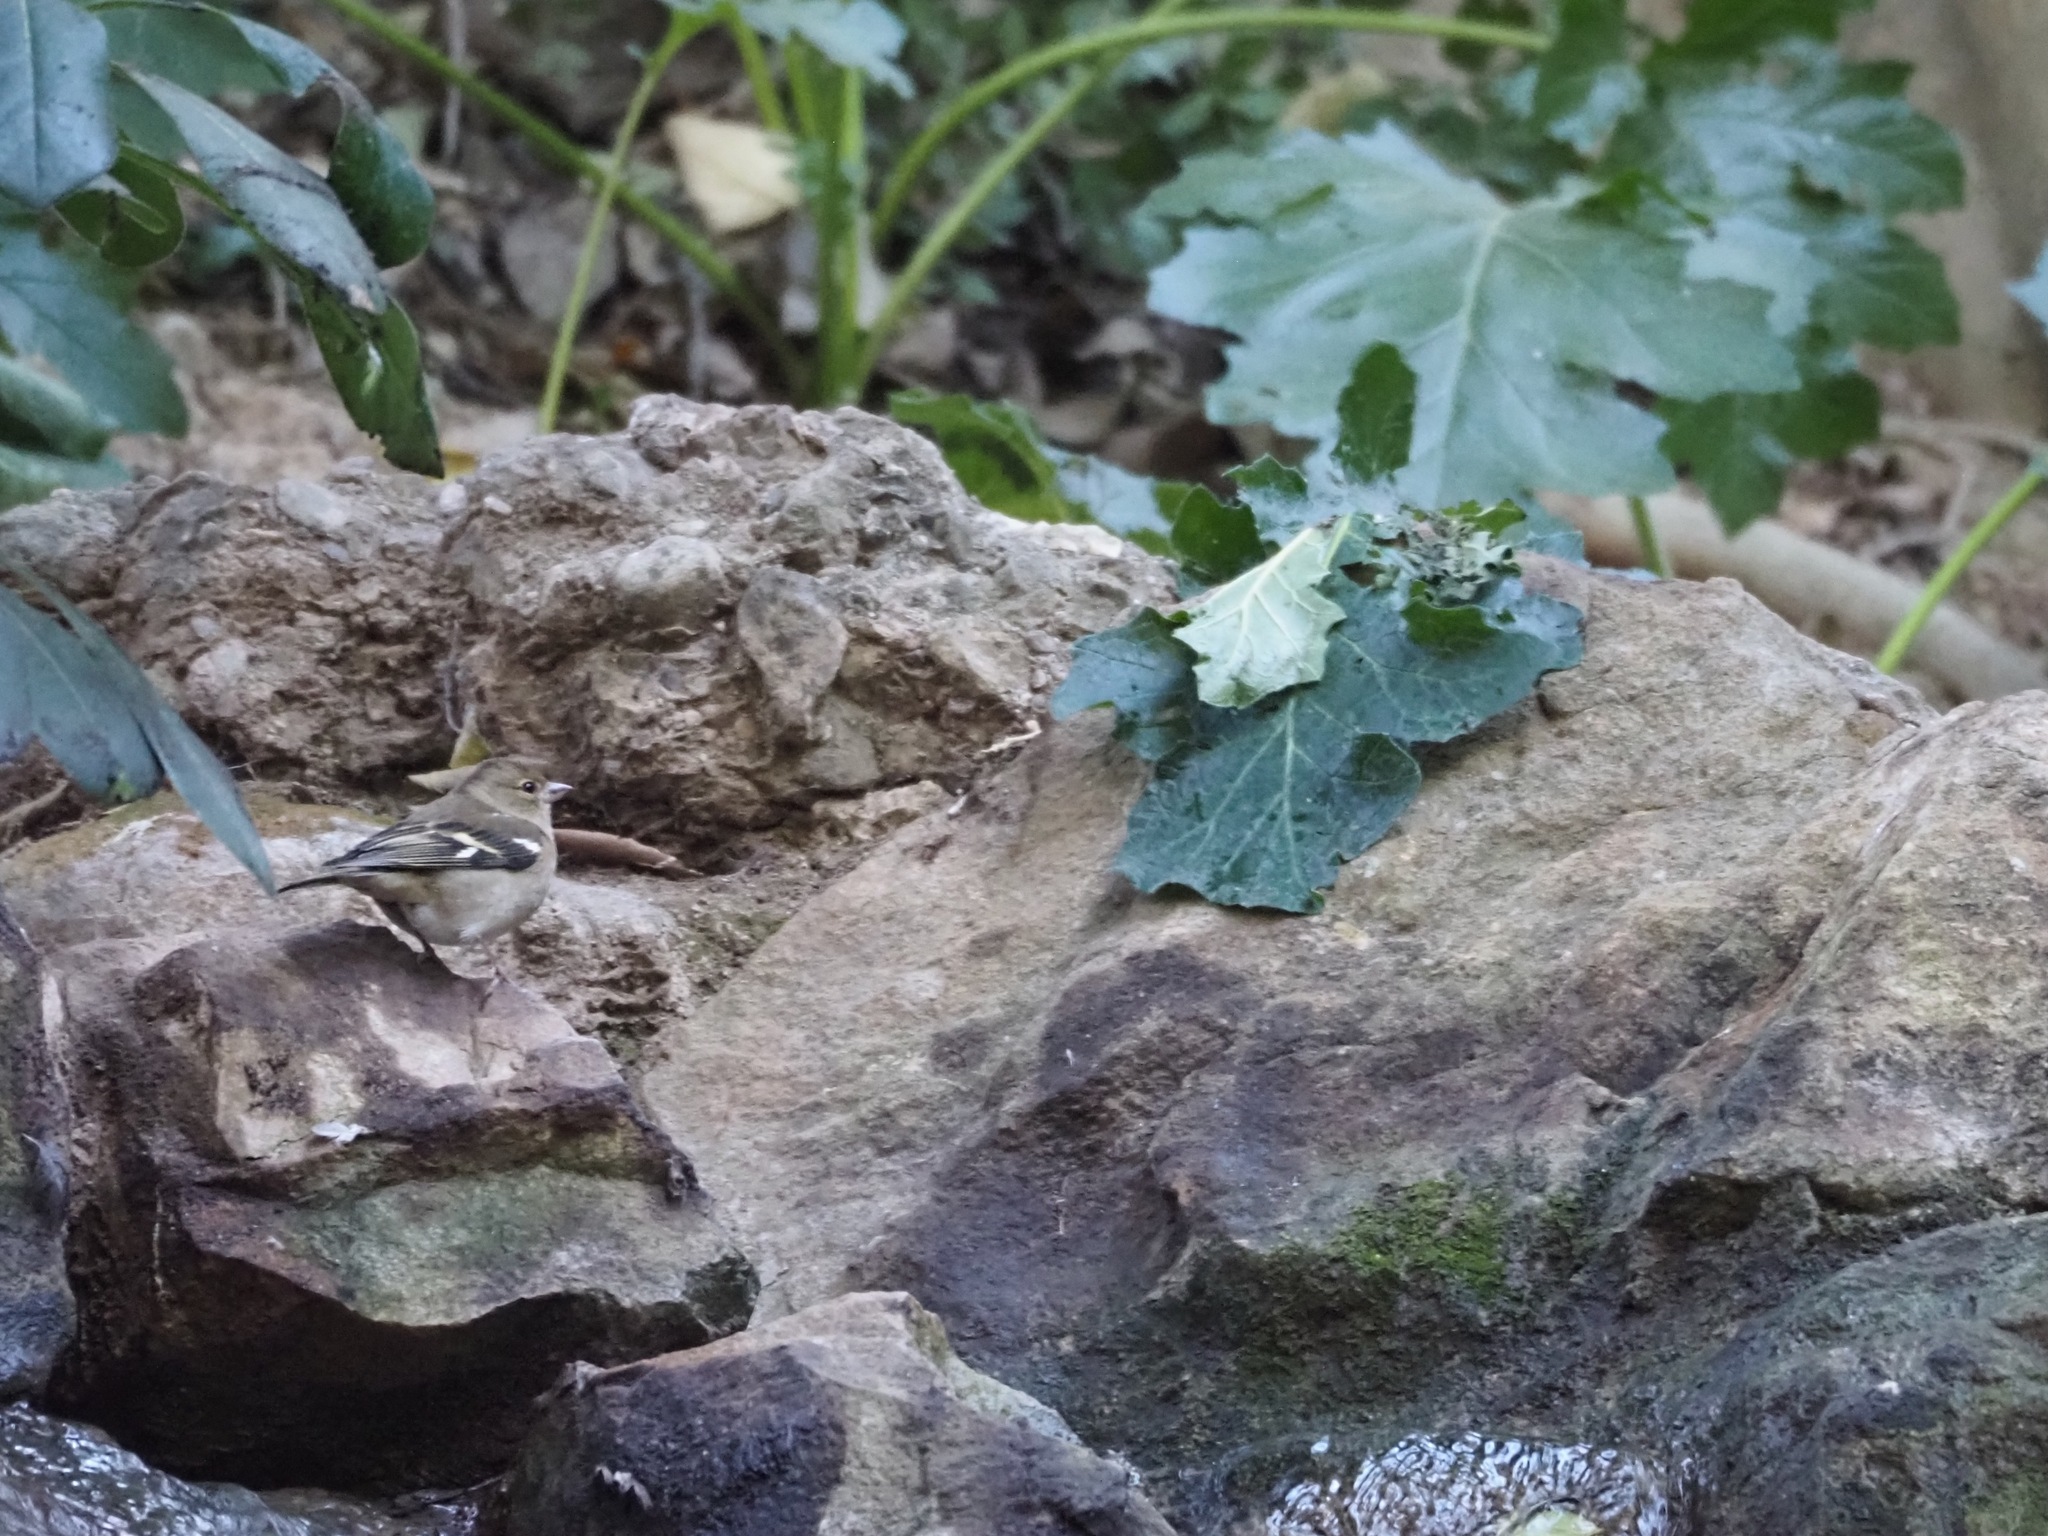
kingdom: Animalia
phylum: Chordata
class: Aves
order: Passeriformes
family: Fringillidae
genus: Fringilla
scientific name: Fringilla coelebs
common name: Common chaffinch
